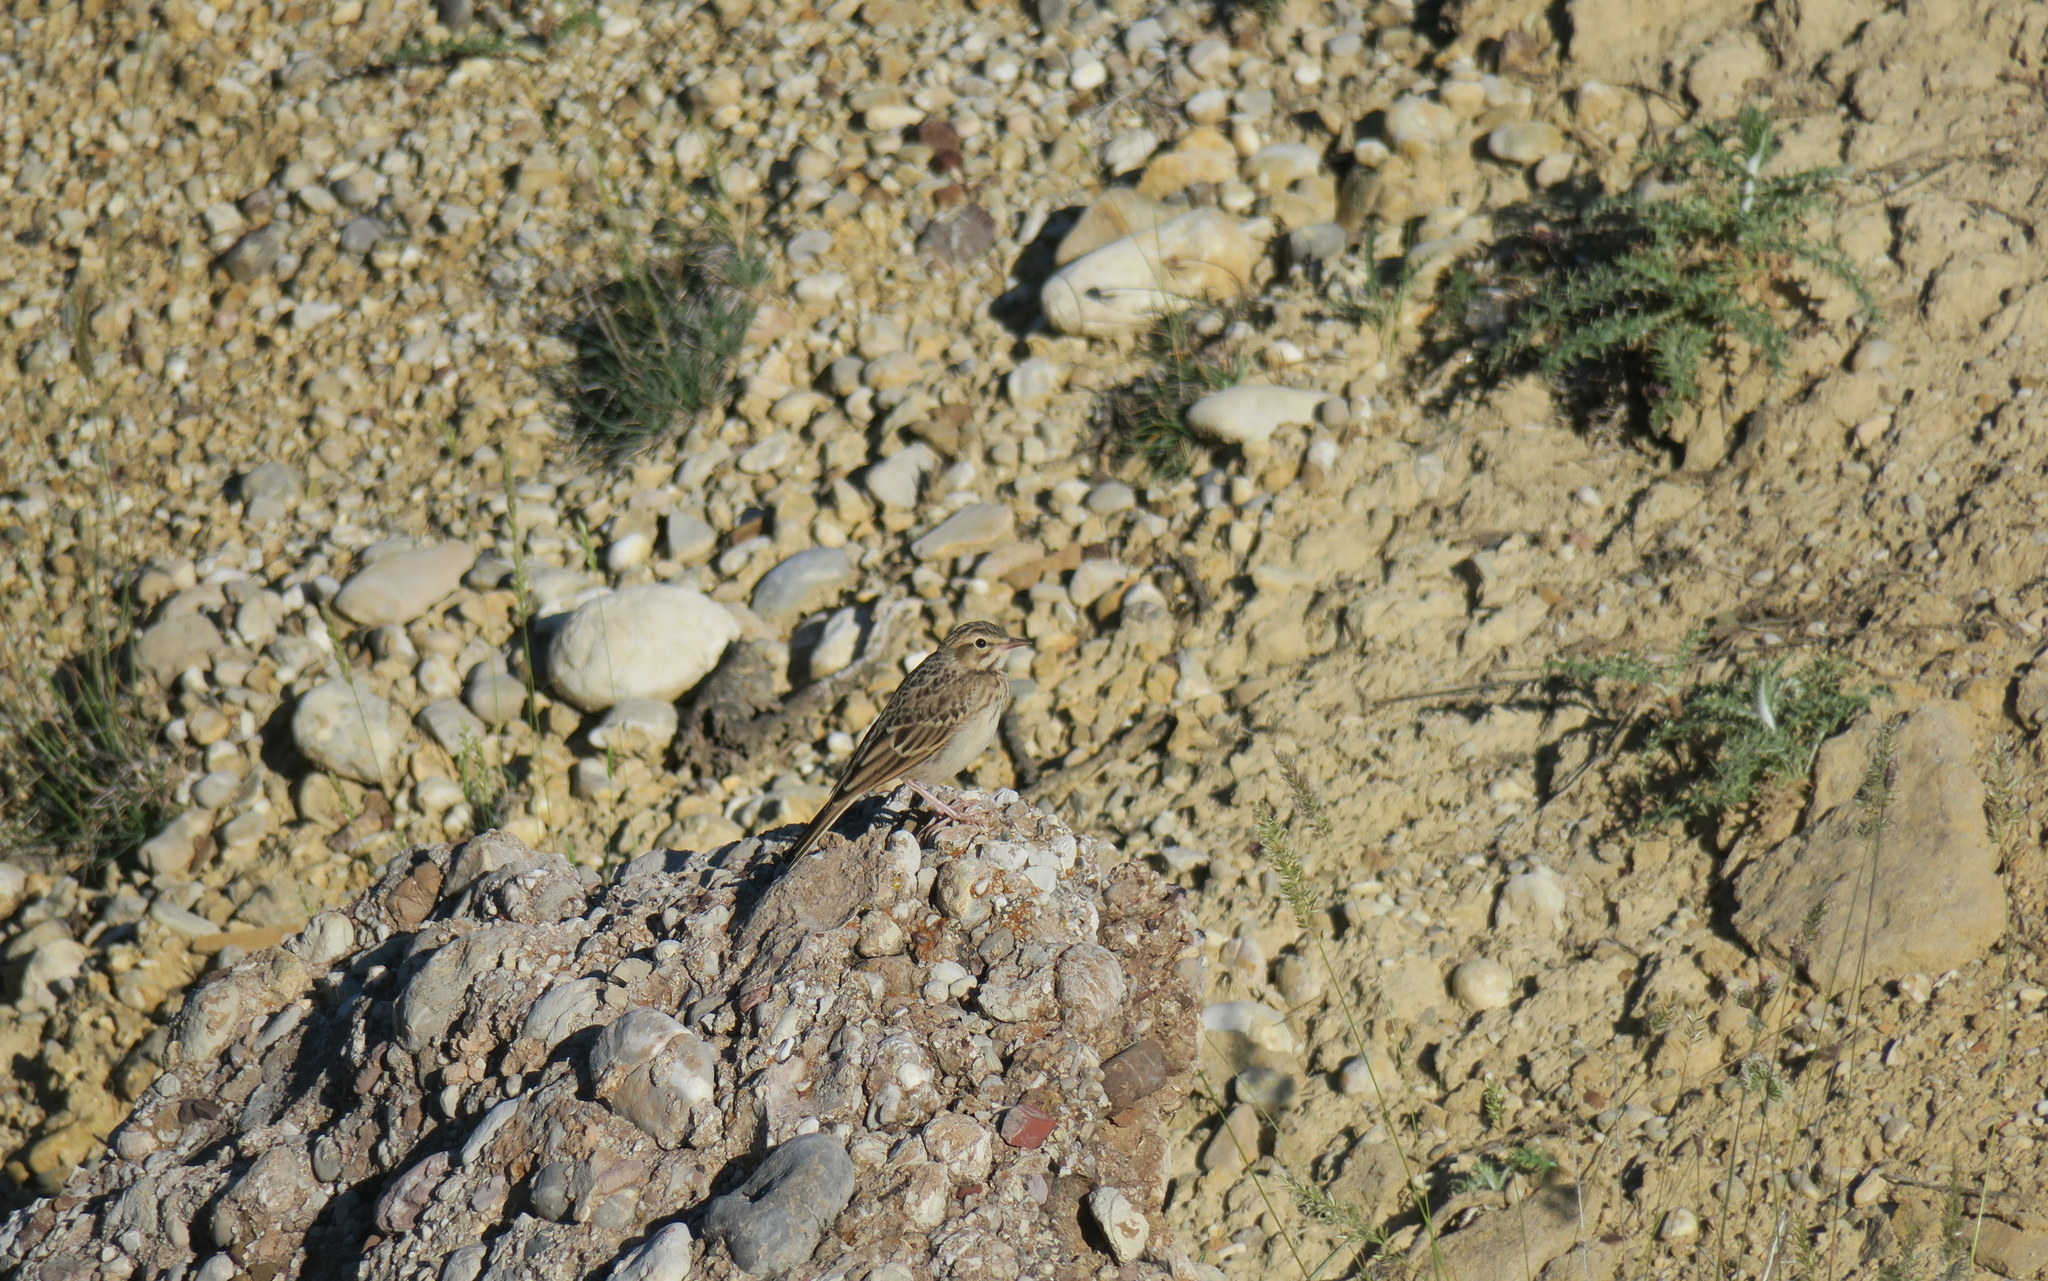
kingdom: Animalia
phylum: Chordata
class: Aves
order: Passeriformes
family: Motacillidae
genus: Anthus
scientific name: Anthus campestris
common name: Tawny pipit
